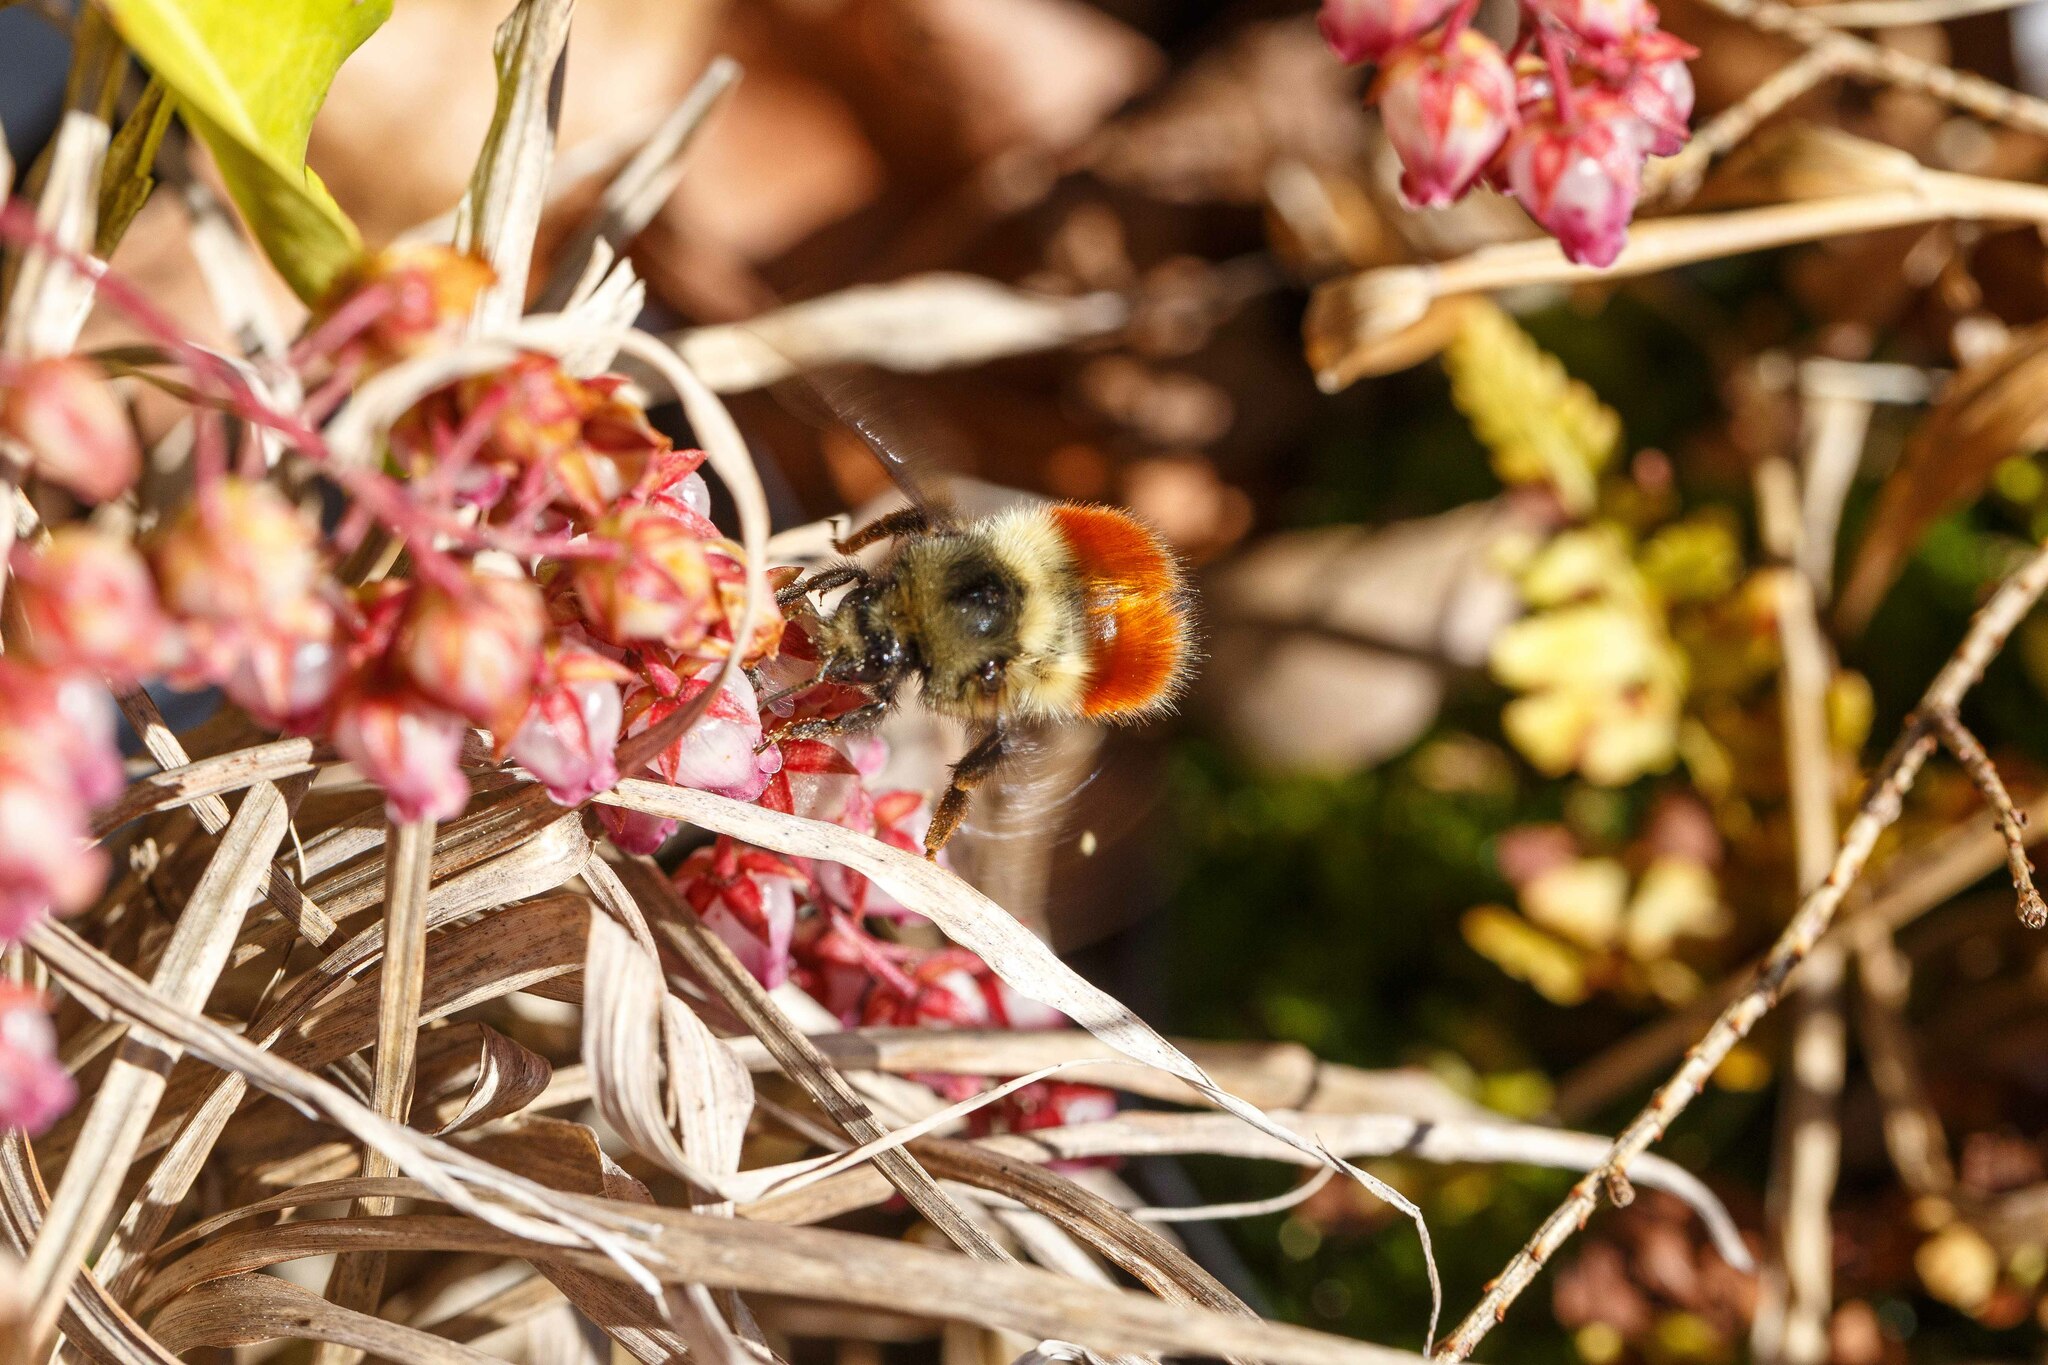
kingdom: Animalia
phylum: Arthropoda
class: Insecta
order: Hymenoptera
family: Apidae
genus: Bombus
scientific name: Bombus melanopygus
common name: Black tail bumble bee
